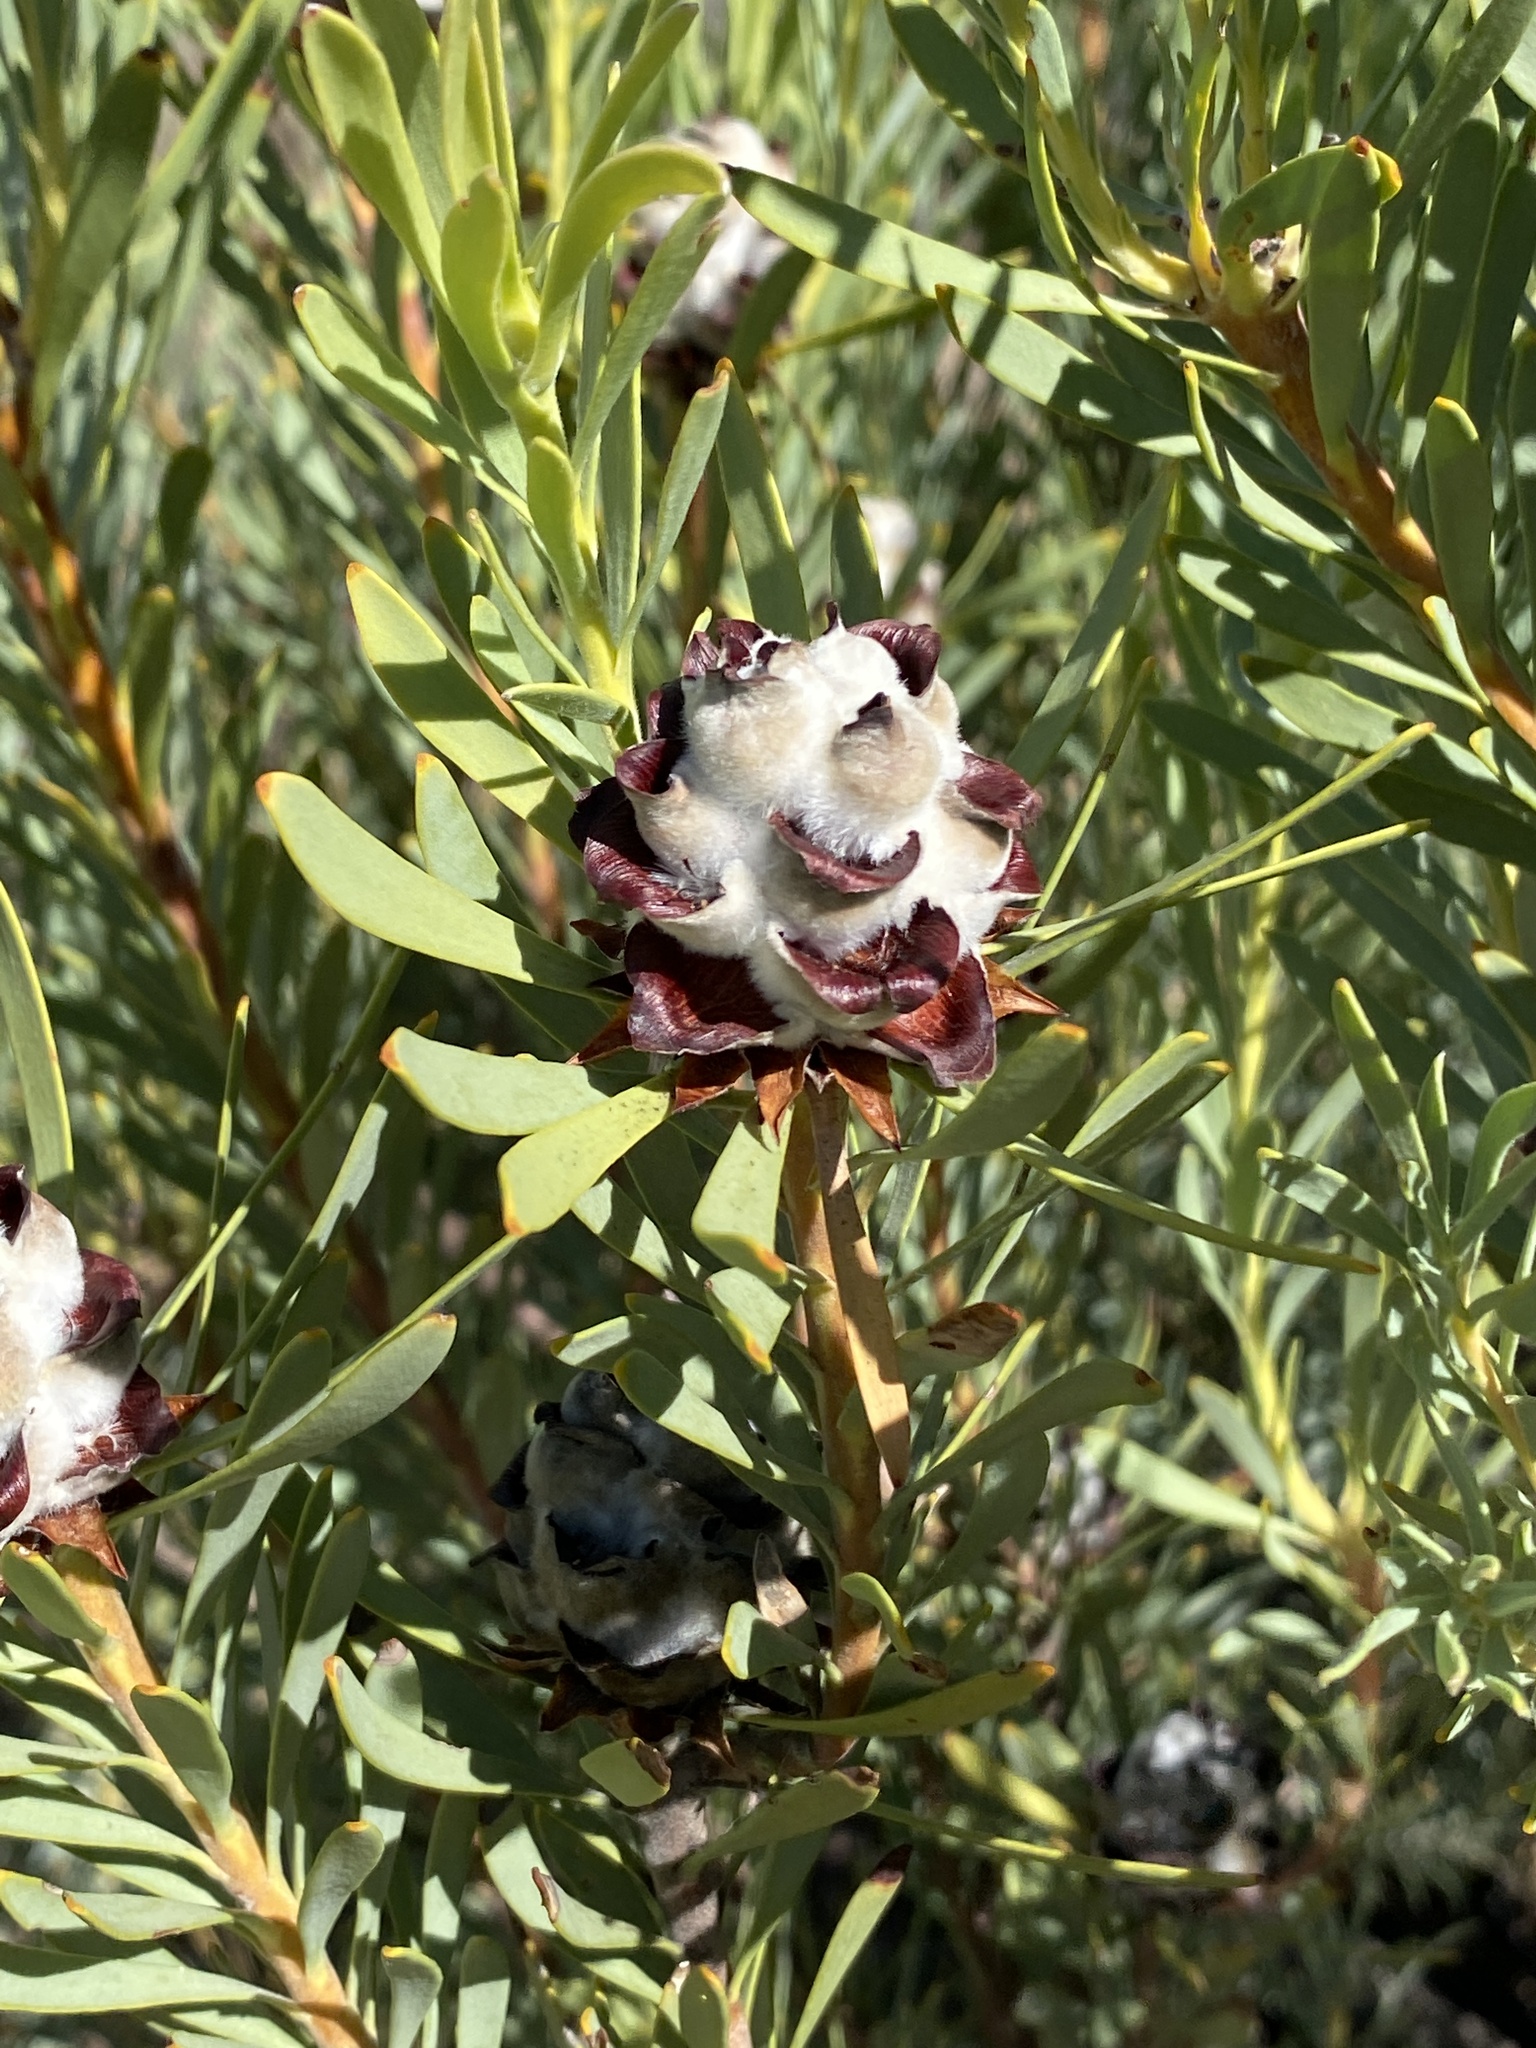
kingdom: Plantae
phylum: Tracheophyta
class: Magnoliopsida
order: Proteales
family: Proteaceae
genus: Leucadendron
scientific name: Leucadendron pubescens
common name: Grey conebush
